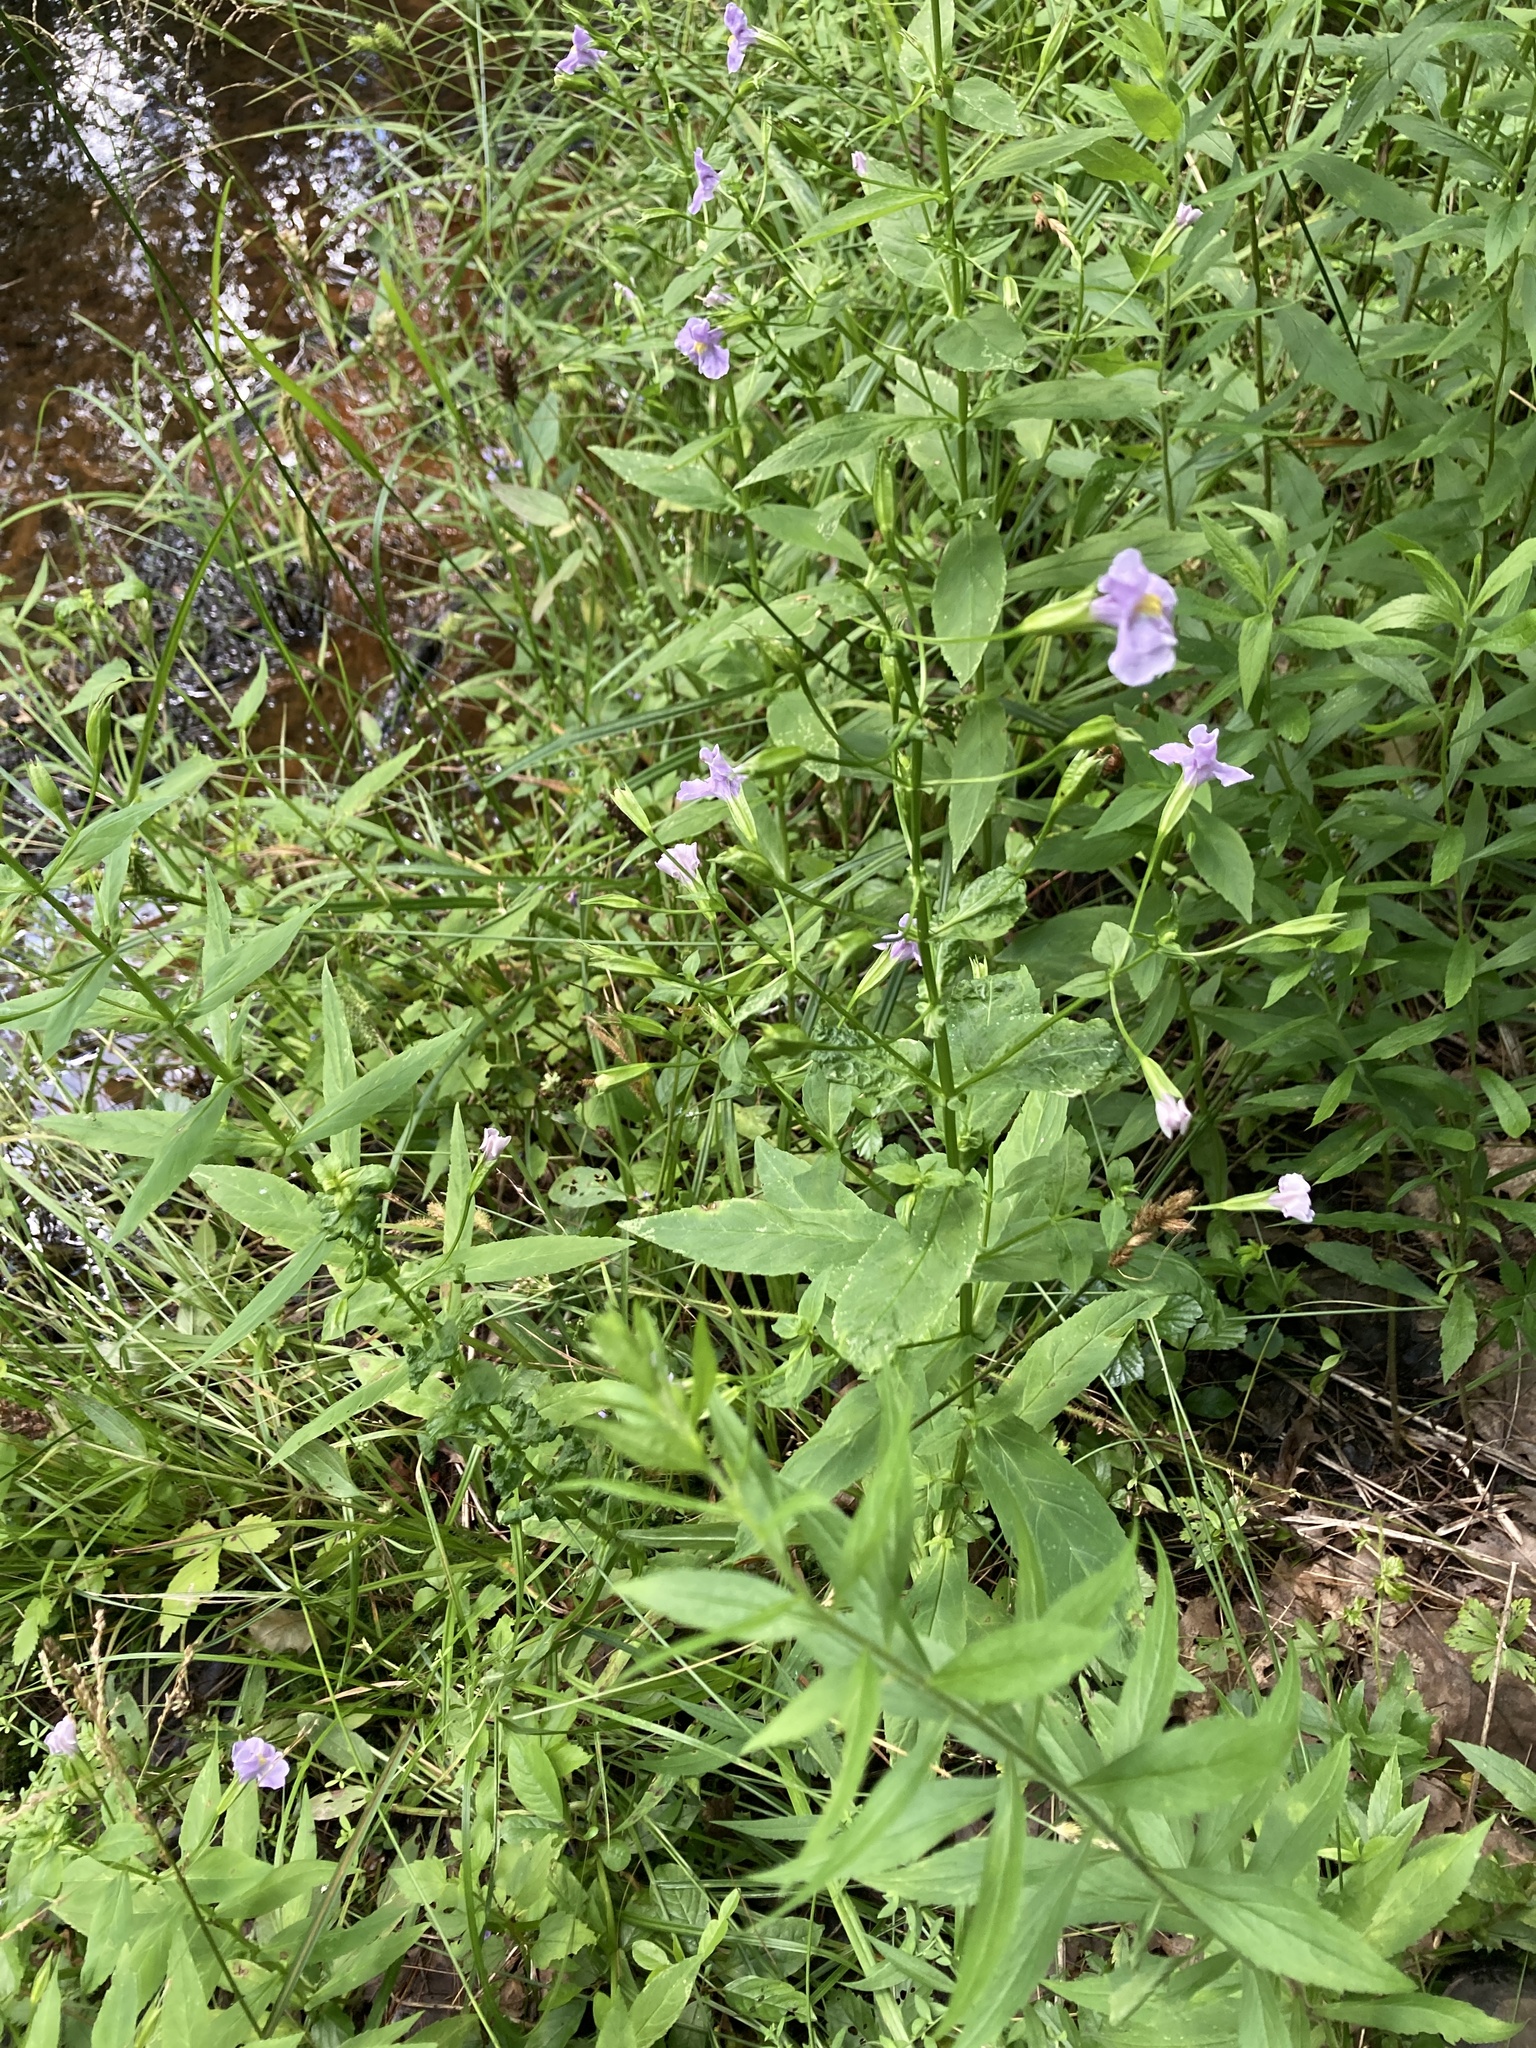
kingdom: Plantae
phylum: Tracheophyta
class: Magnoliopsida
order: Lamiales
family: Phrymaceae
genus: Mimulus
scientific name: Mimulus ringens
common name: Allegheny monkeyflower
